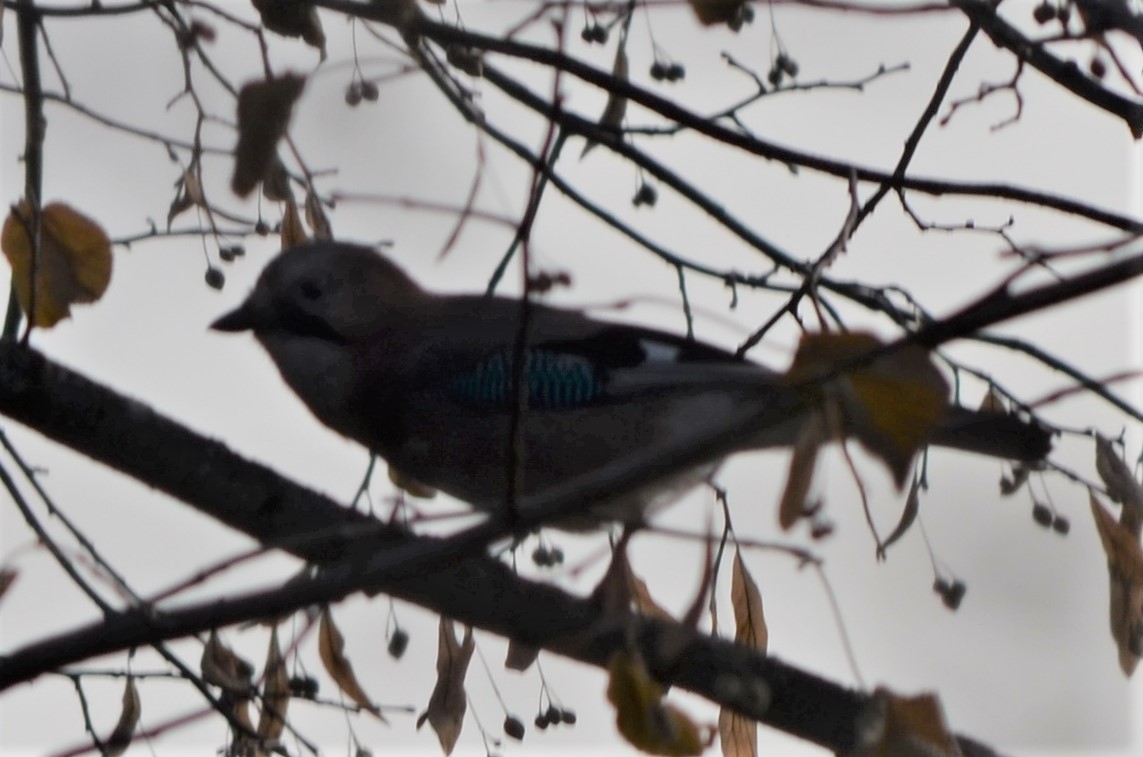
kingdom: Animalia
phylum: Chordata
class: Aves
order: Passeriformes
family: Corvidae
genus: Garrulus
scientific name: Garrulus glandarius
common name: Eurasian jay
